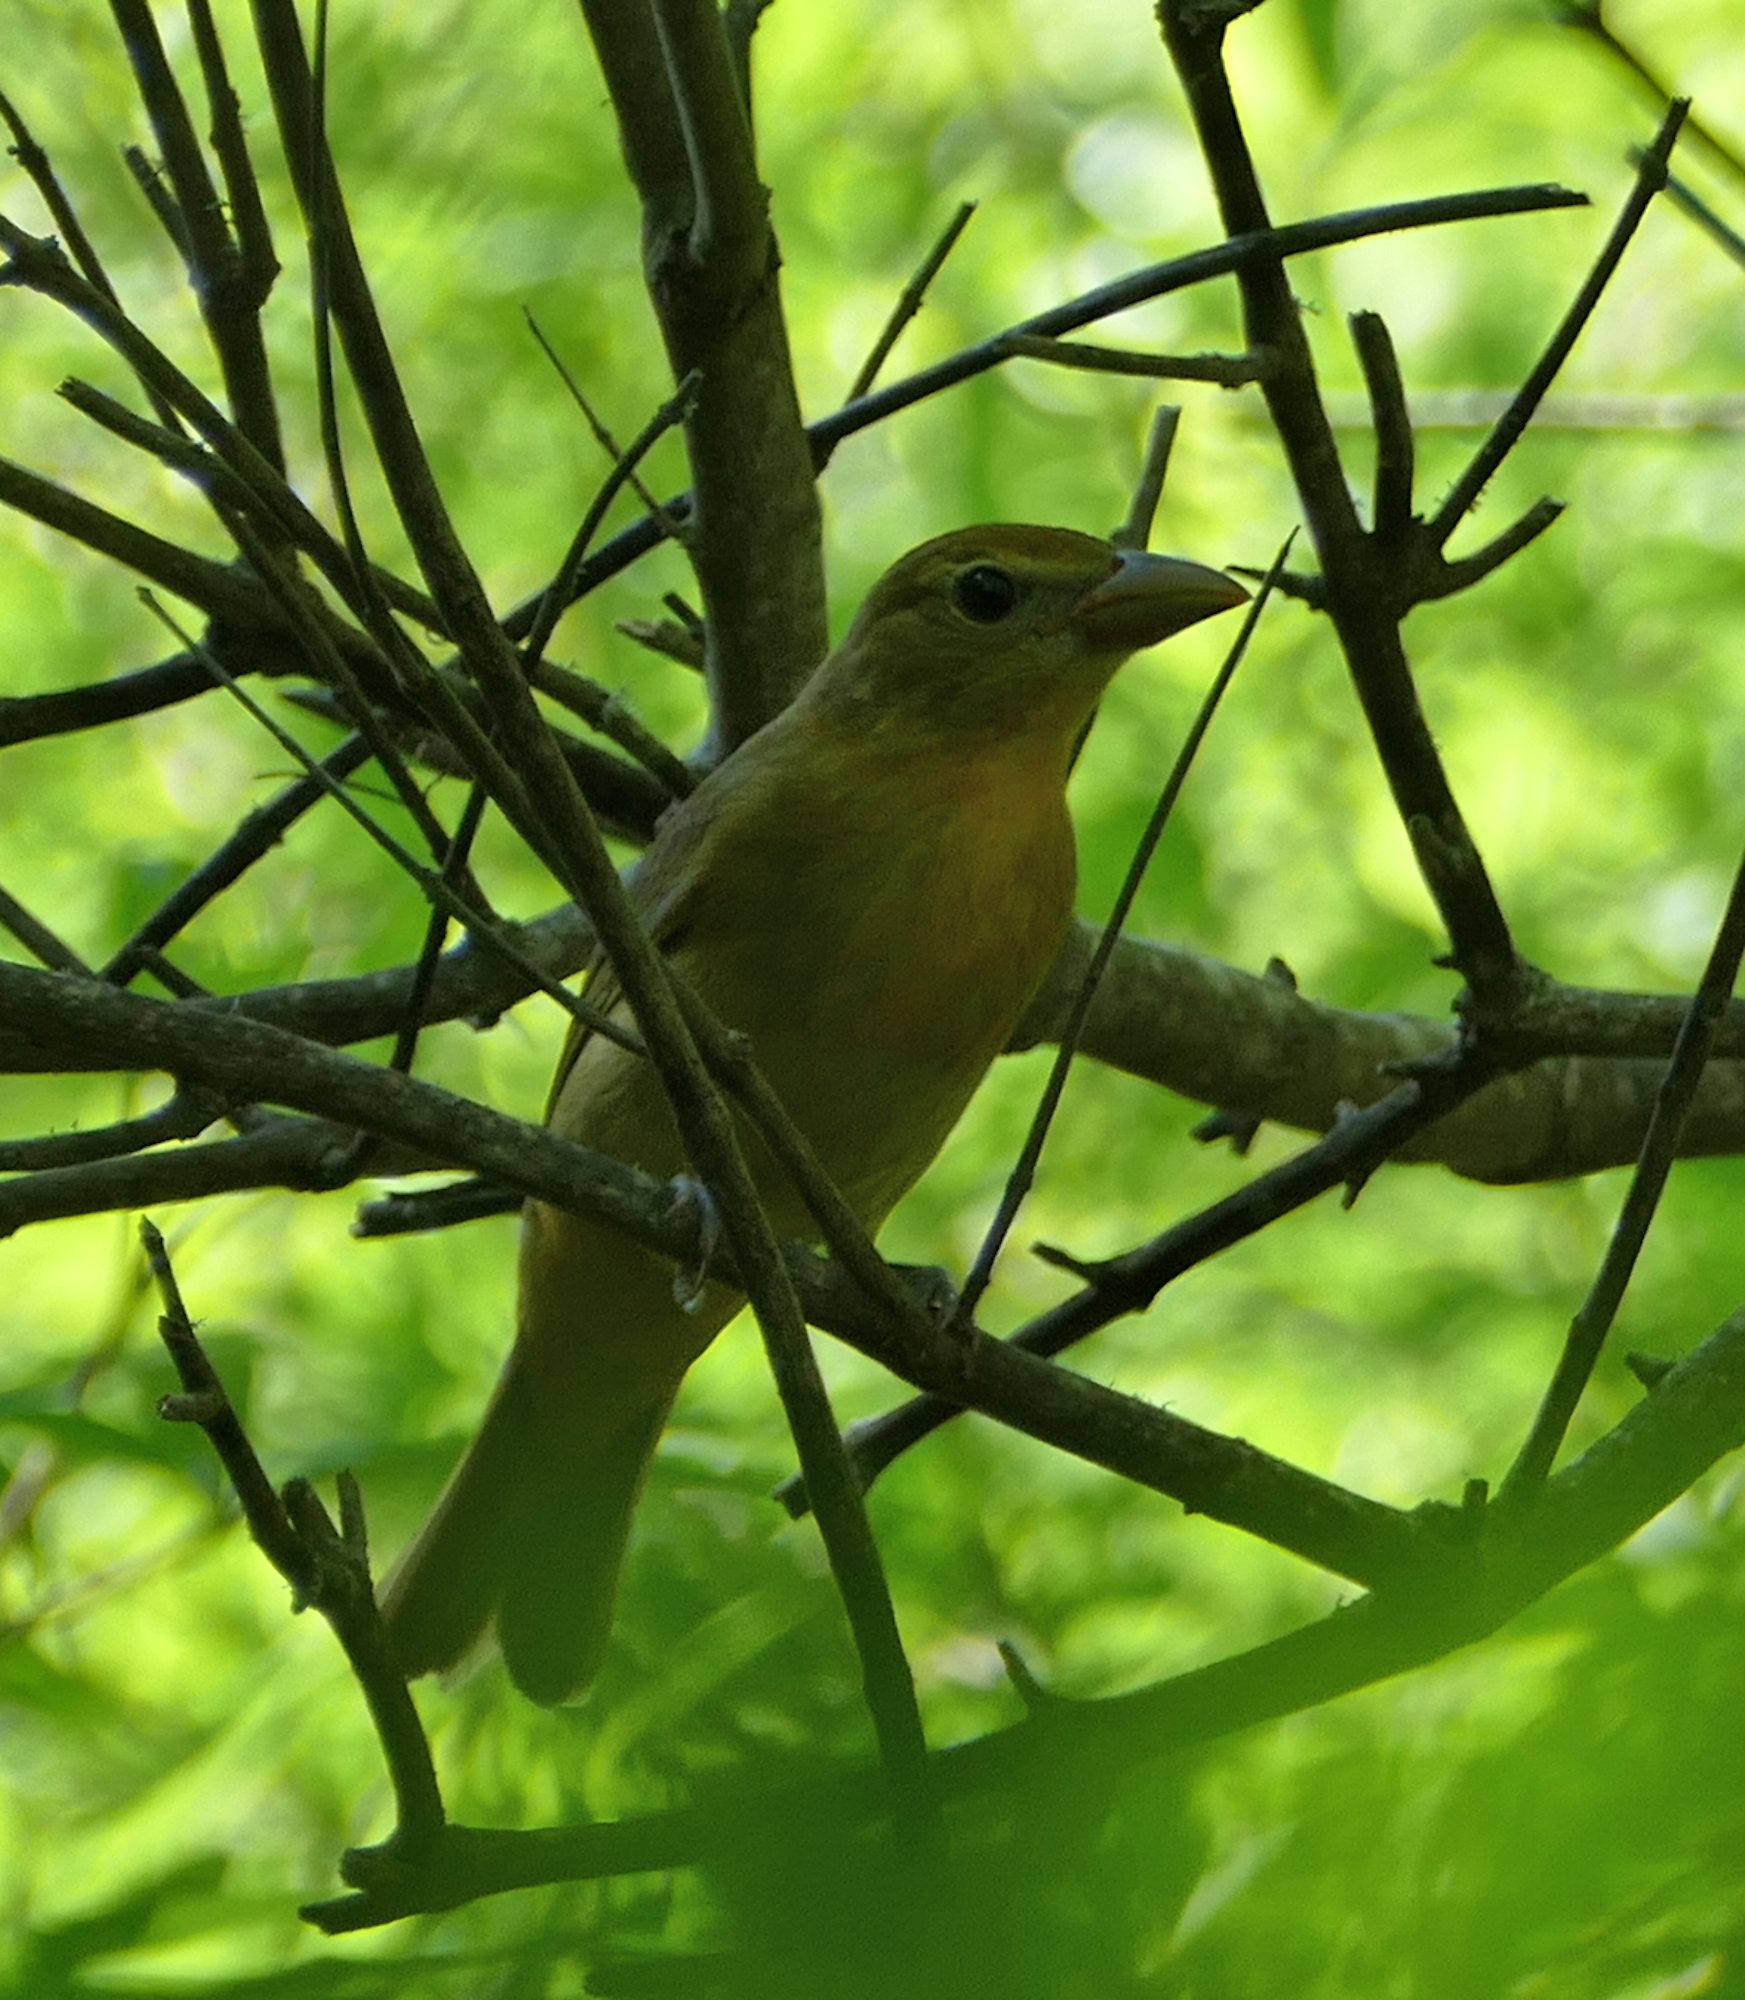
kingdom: Animalia
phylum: Chordata
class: Aves
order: Passeriformes
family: Cardinalidae
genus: Piranga
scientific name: Piranga rubra
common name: Summer tanager
